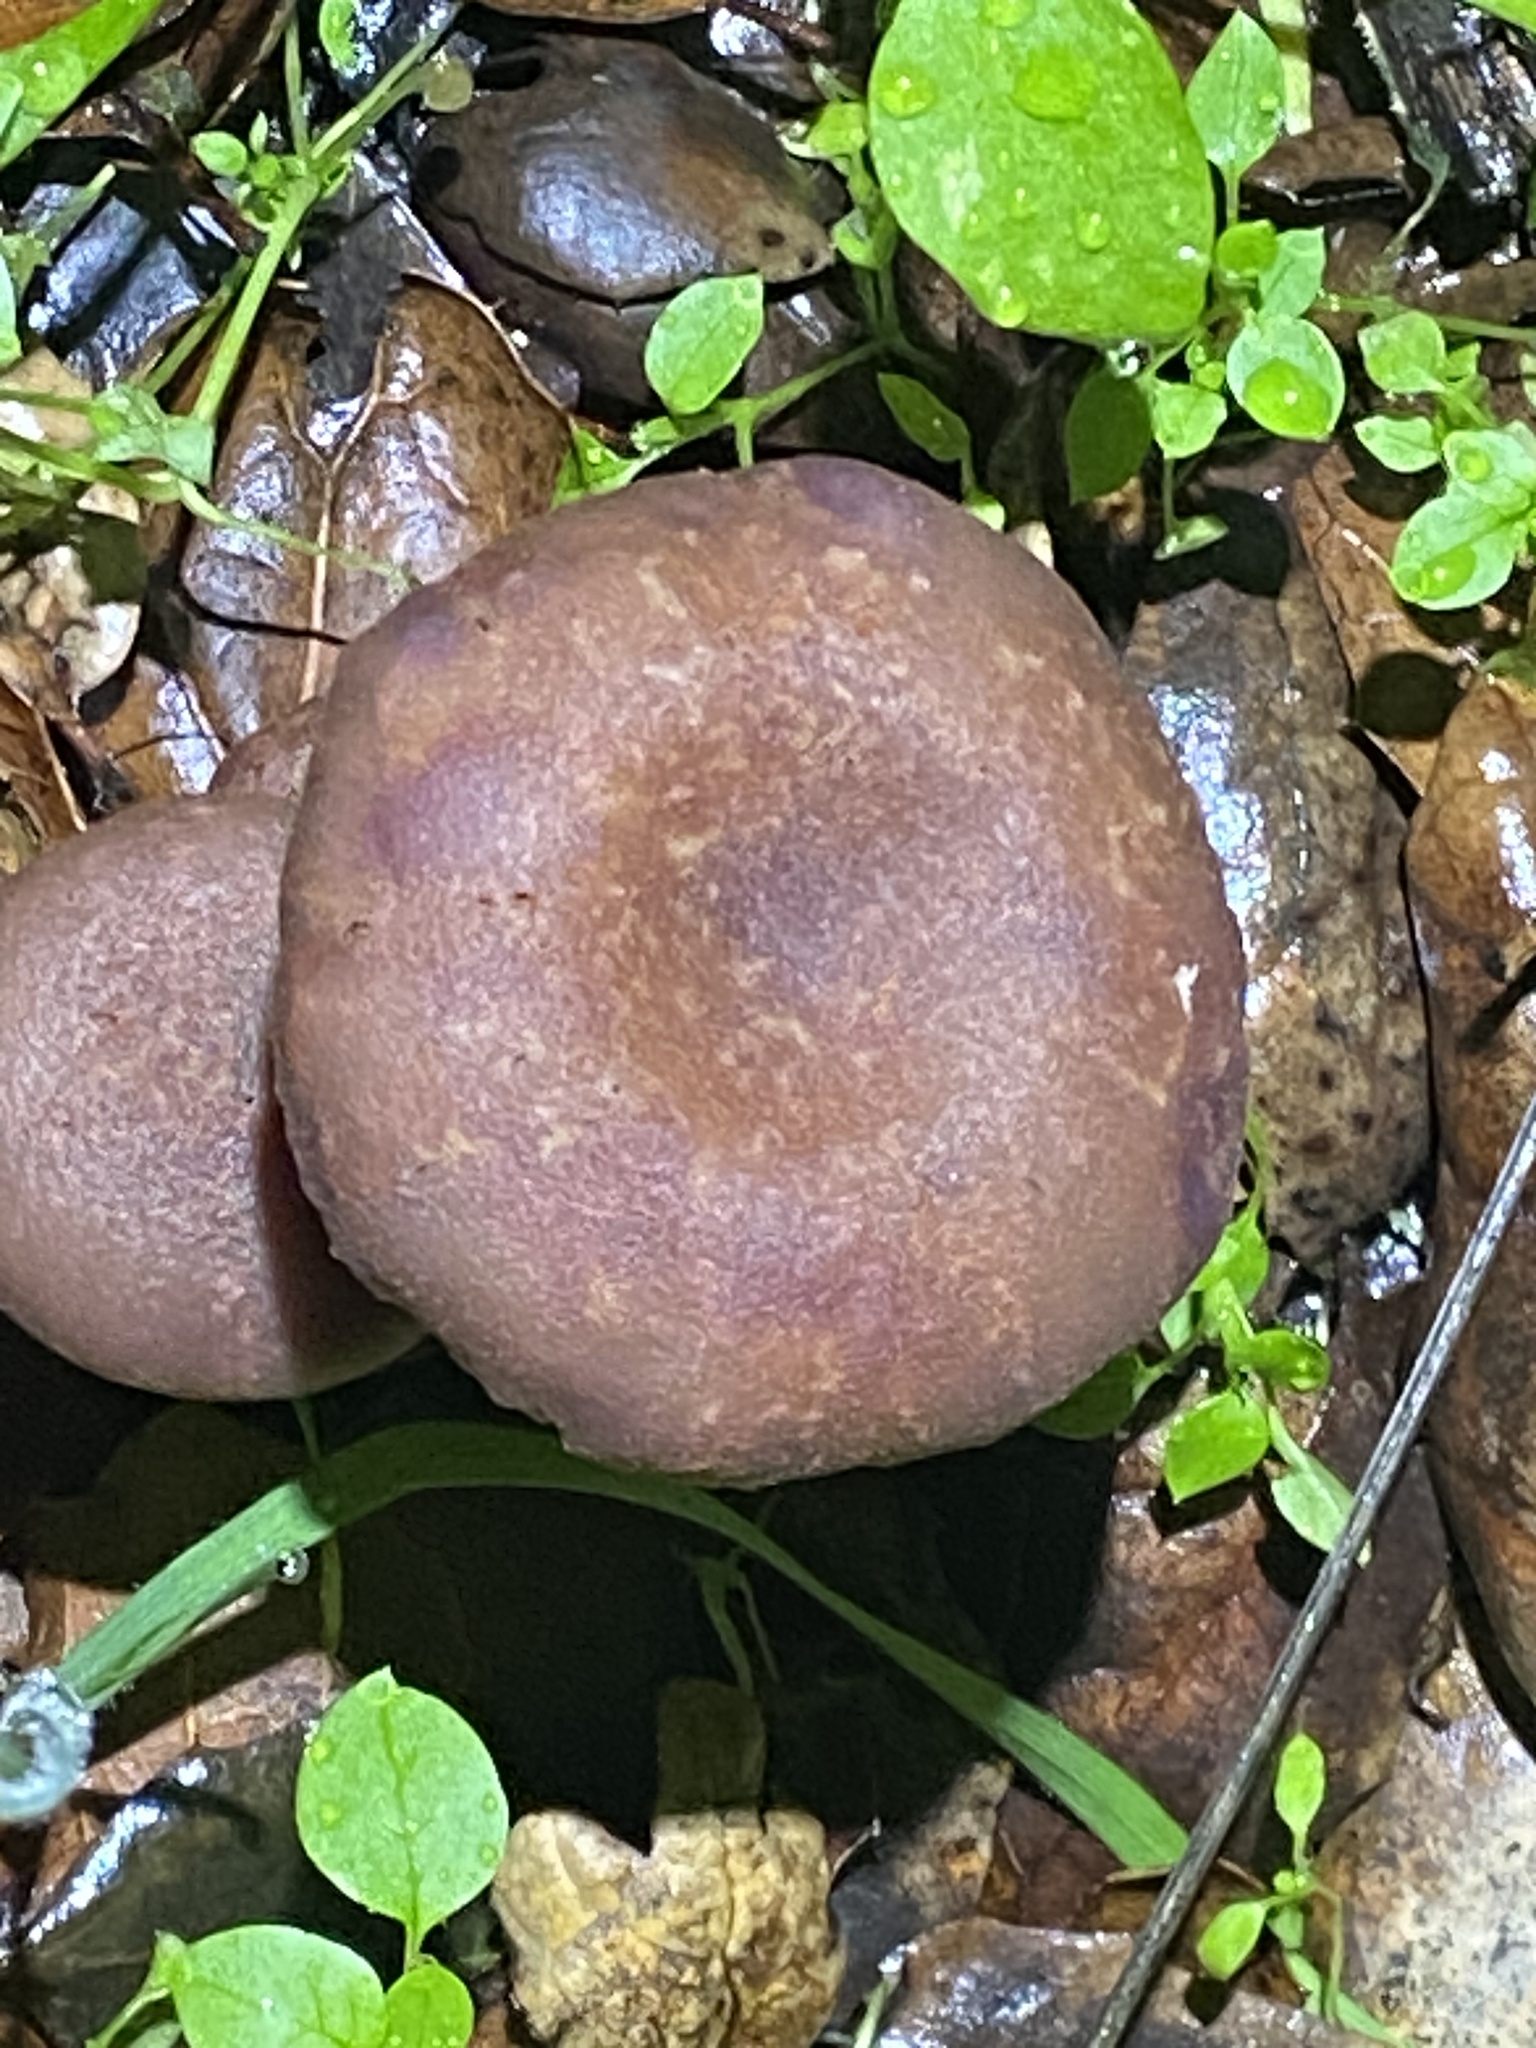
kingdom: Fungi
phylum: Basidiomycota
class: Agaricomycetes
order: Agaricales
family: Hydnangiaceae
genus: Laccaria
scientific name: Laccaria amethysteo-occidentalis
